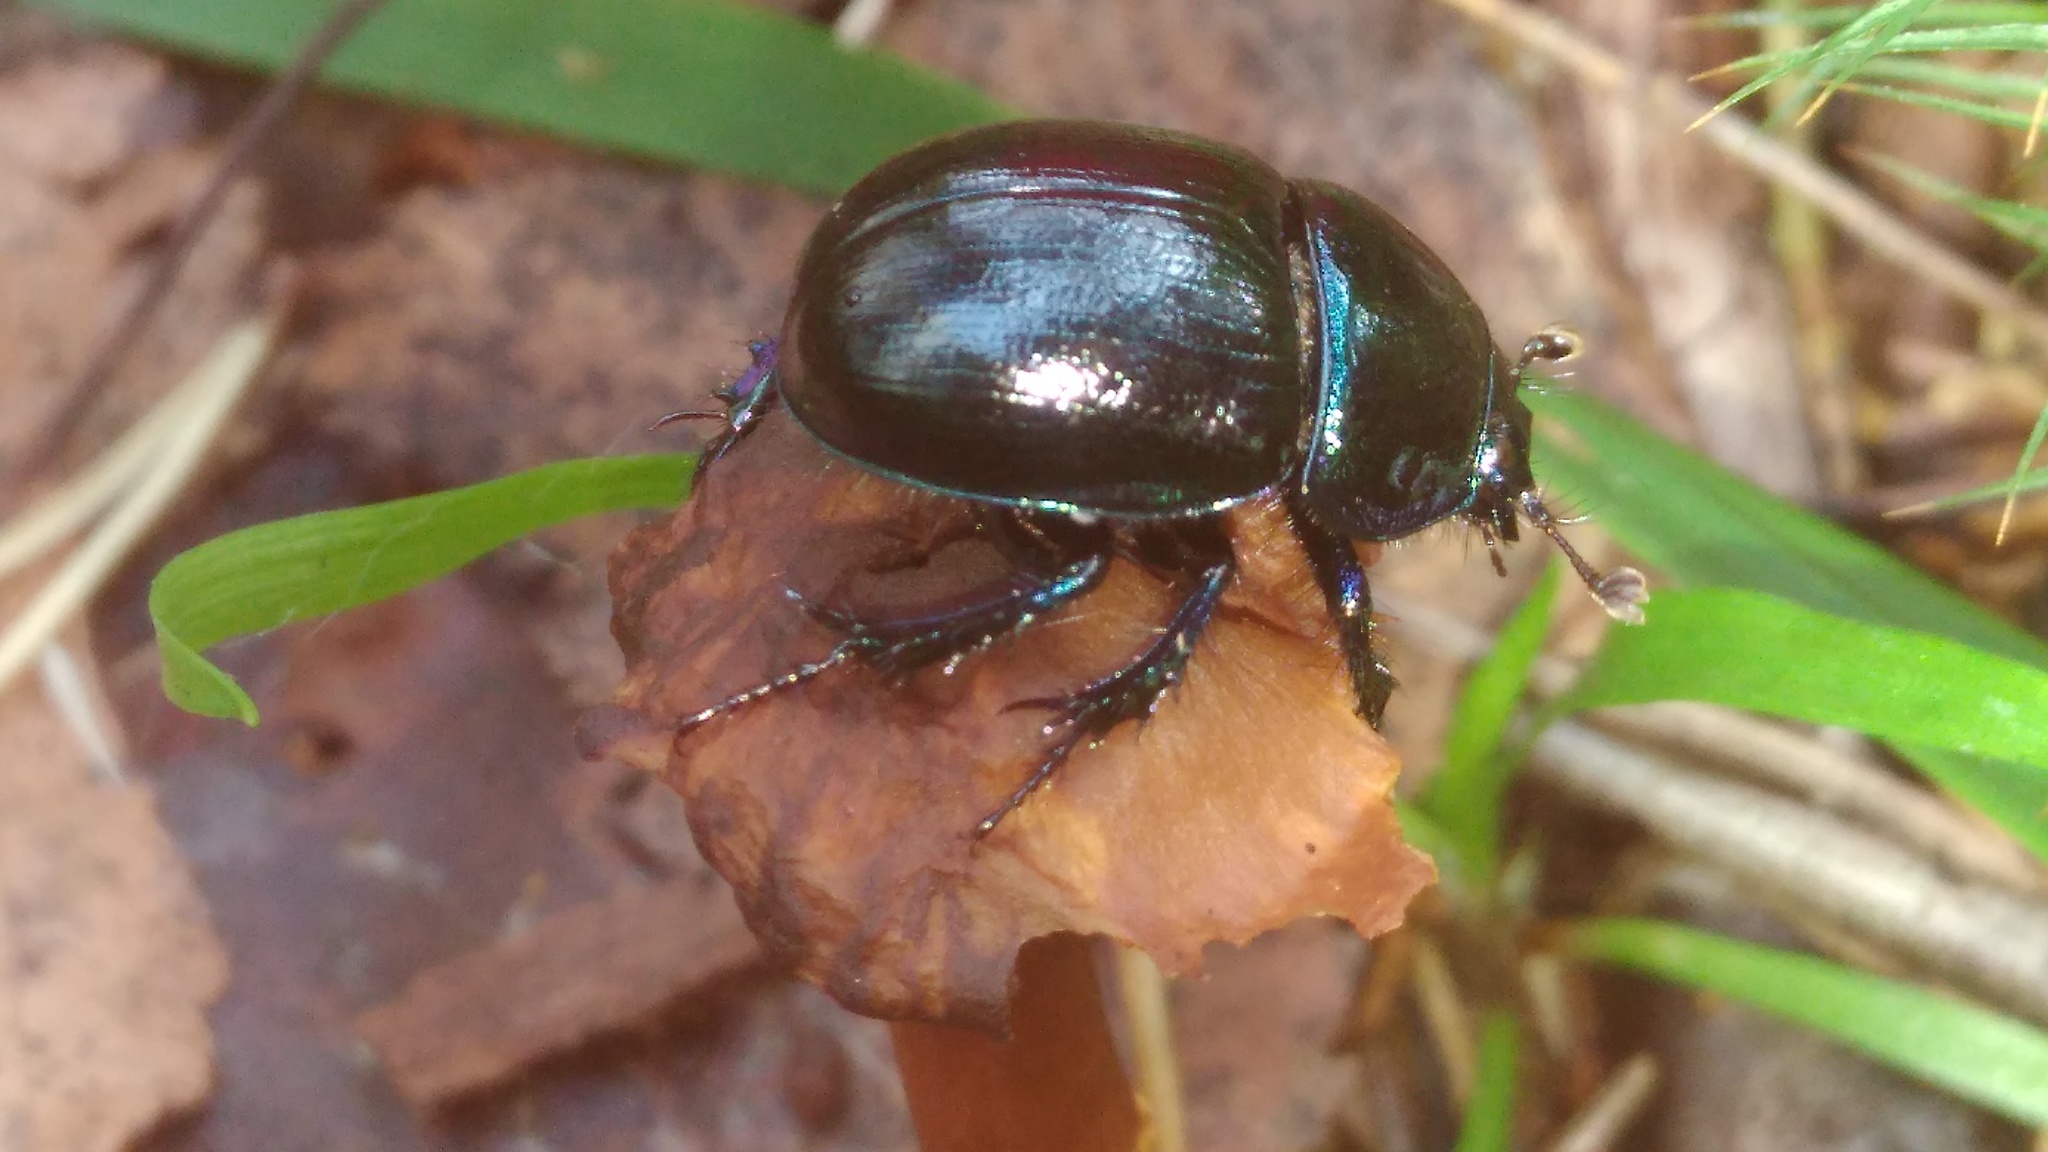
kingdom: Animalia
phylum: Arthropoda
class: Insecta
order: Coleoptera
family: Geotrupidae
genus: Anoplotrupes
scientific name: Anoplotrupes stercorosus
